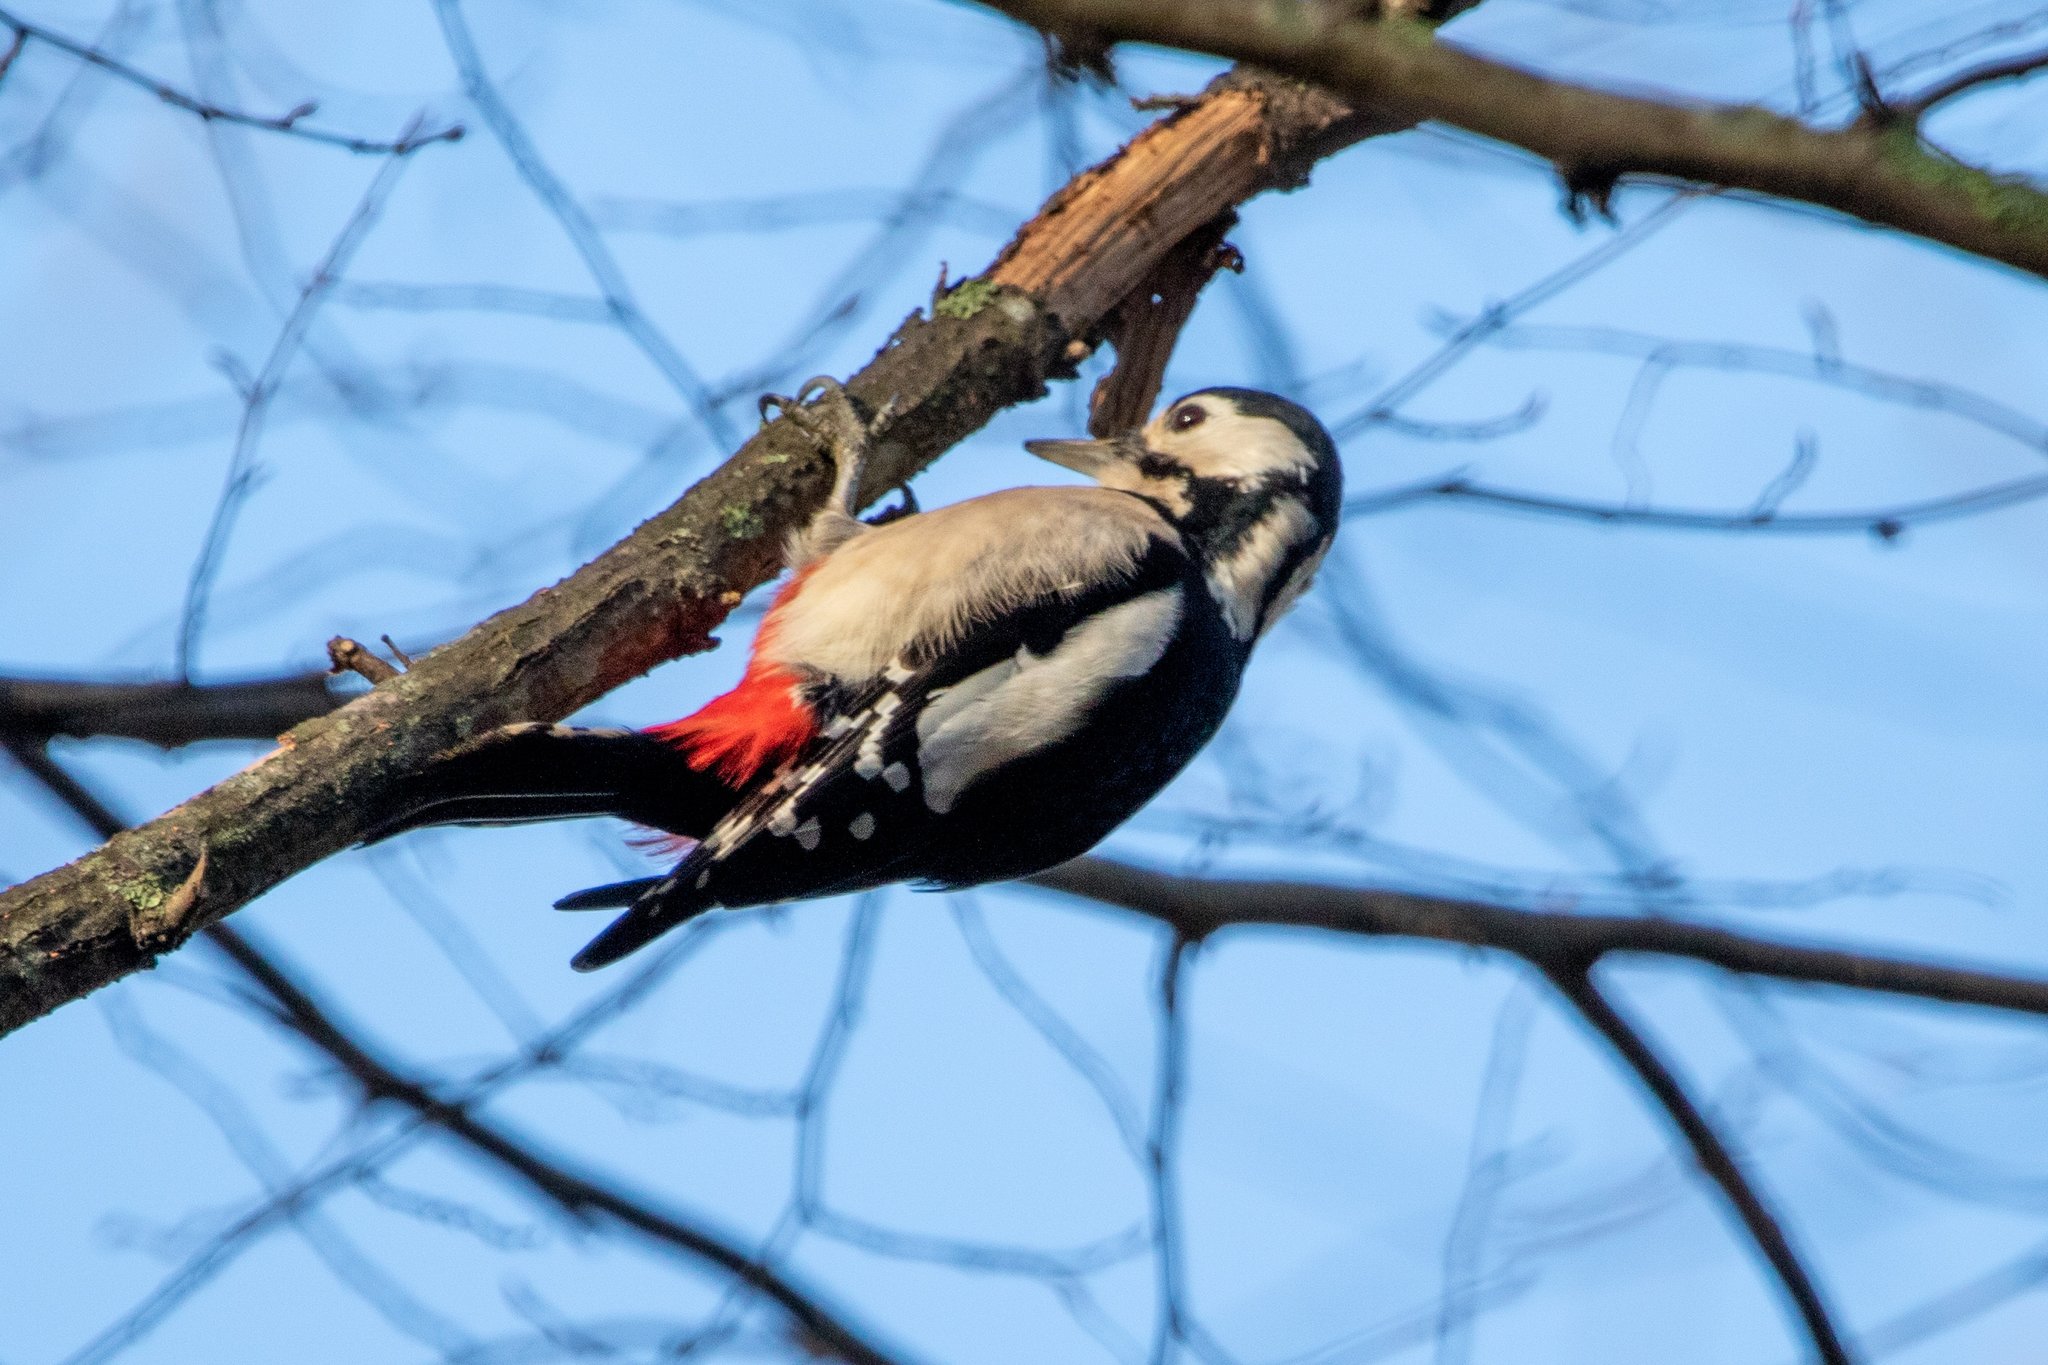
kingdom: Animalia
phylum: Chordata
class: Aves
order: Piciformes
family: Picidae
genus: Dendrocopos
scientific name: Dendrocopos major
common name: Great spotted woodpecker
